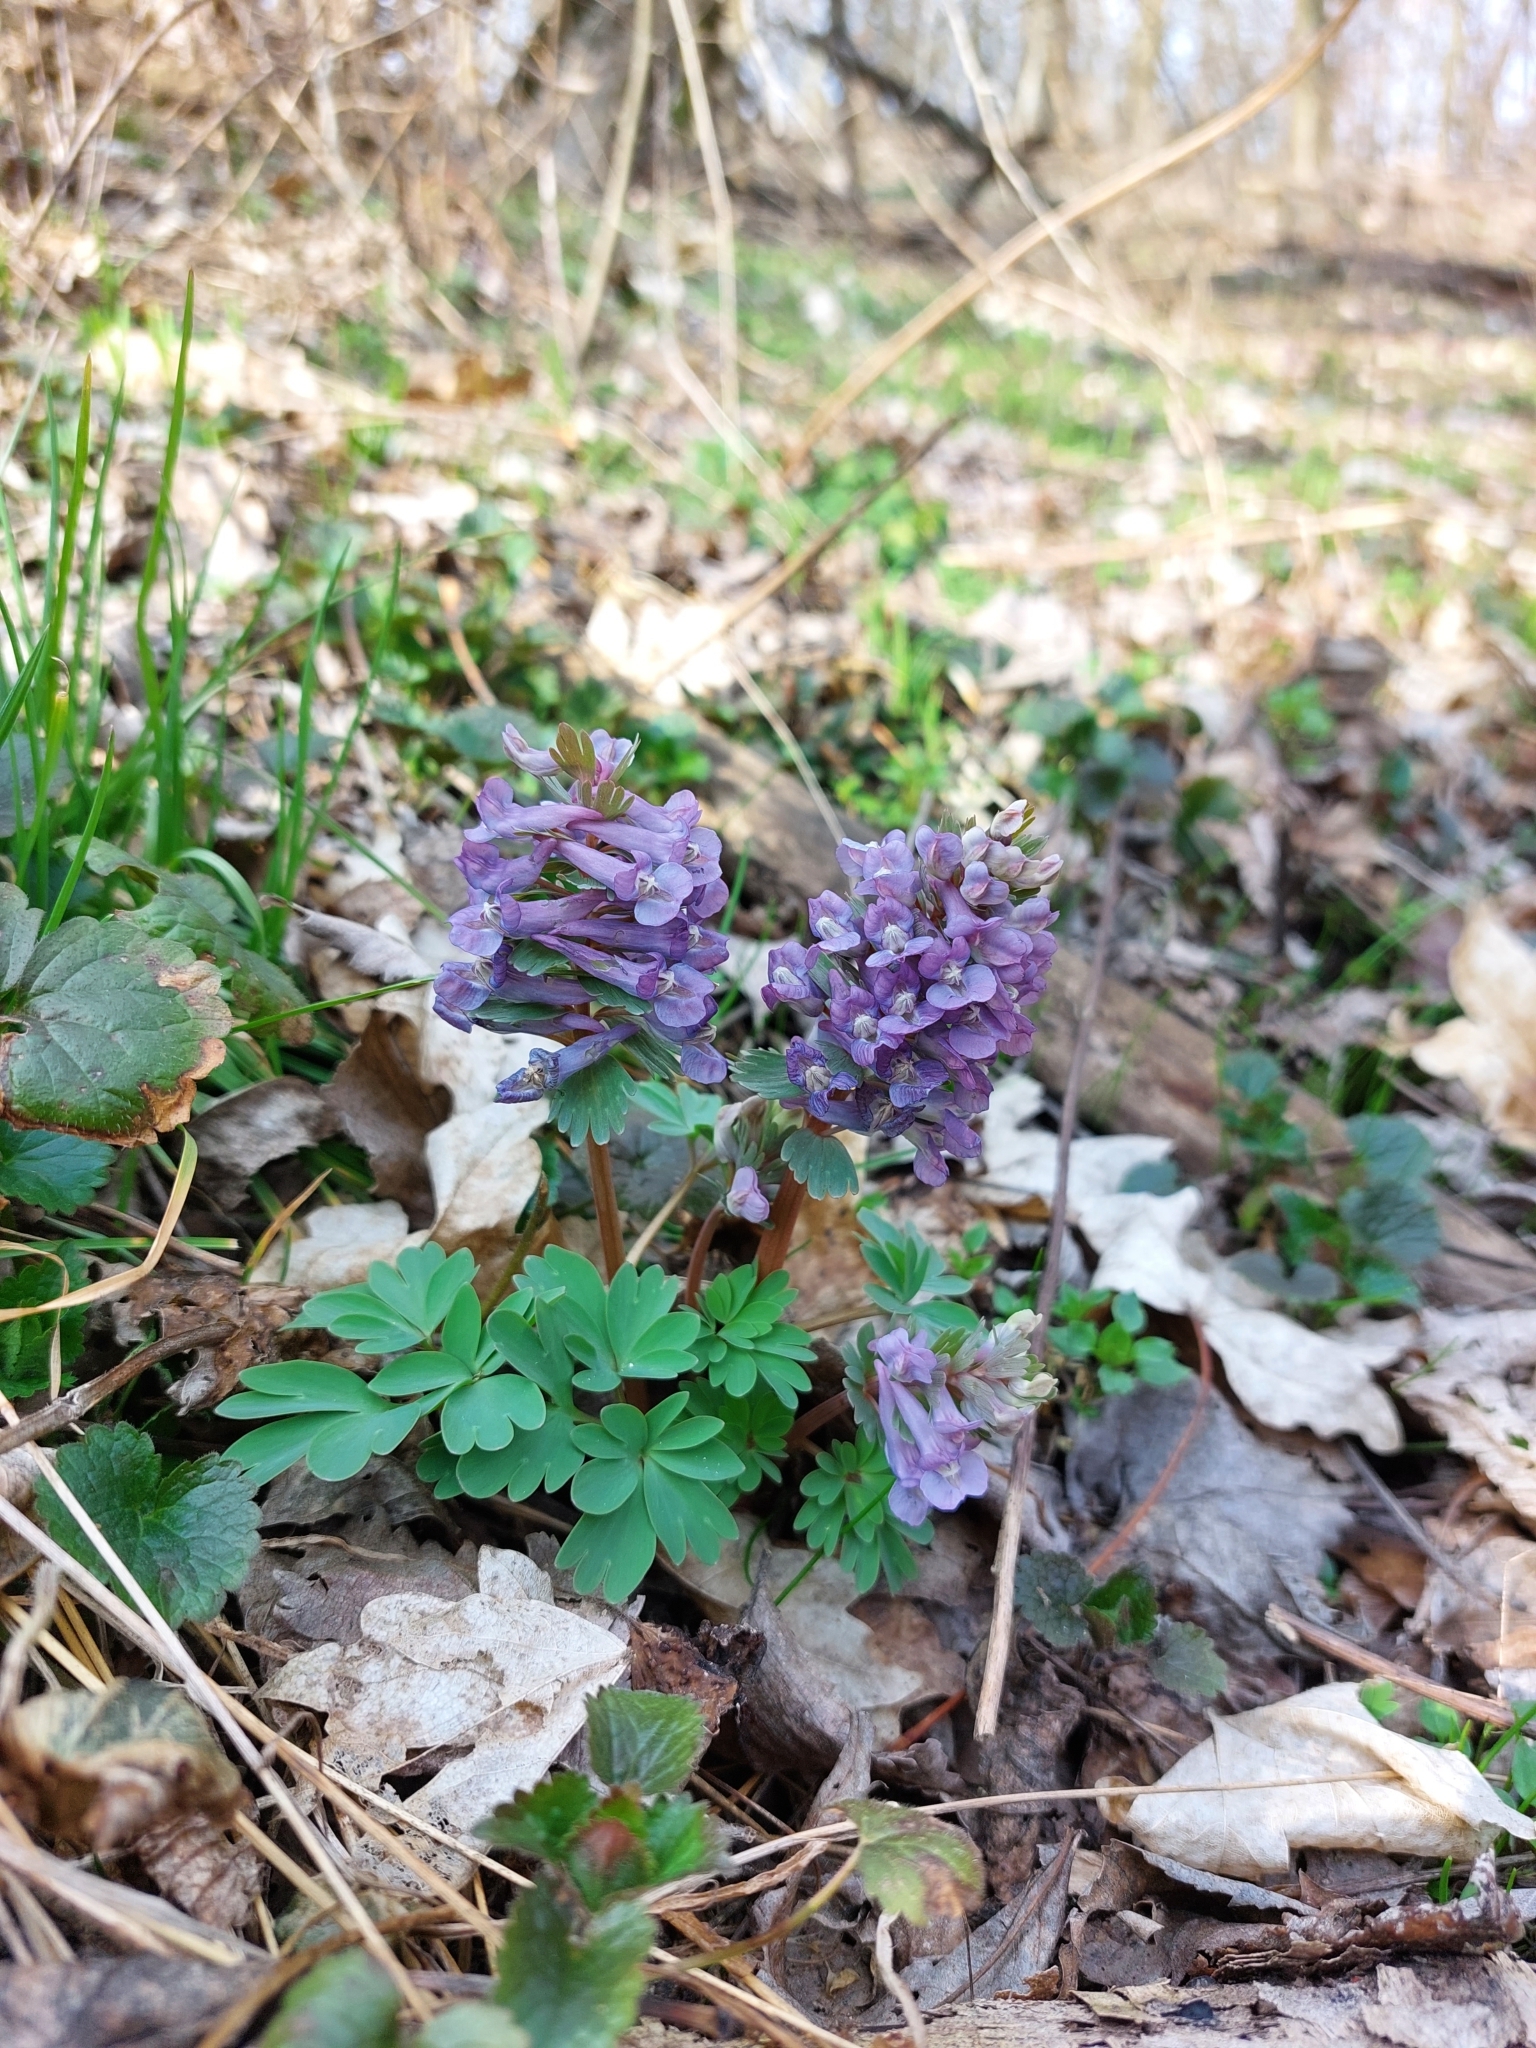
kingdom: Plantae
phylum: Tracheophyta
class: Magnoliopsida
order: Ranunculales
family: Papaveraceae
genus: Corydalis
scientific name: Corydalis solida
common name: Bird-in-a-bush
